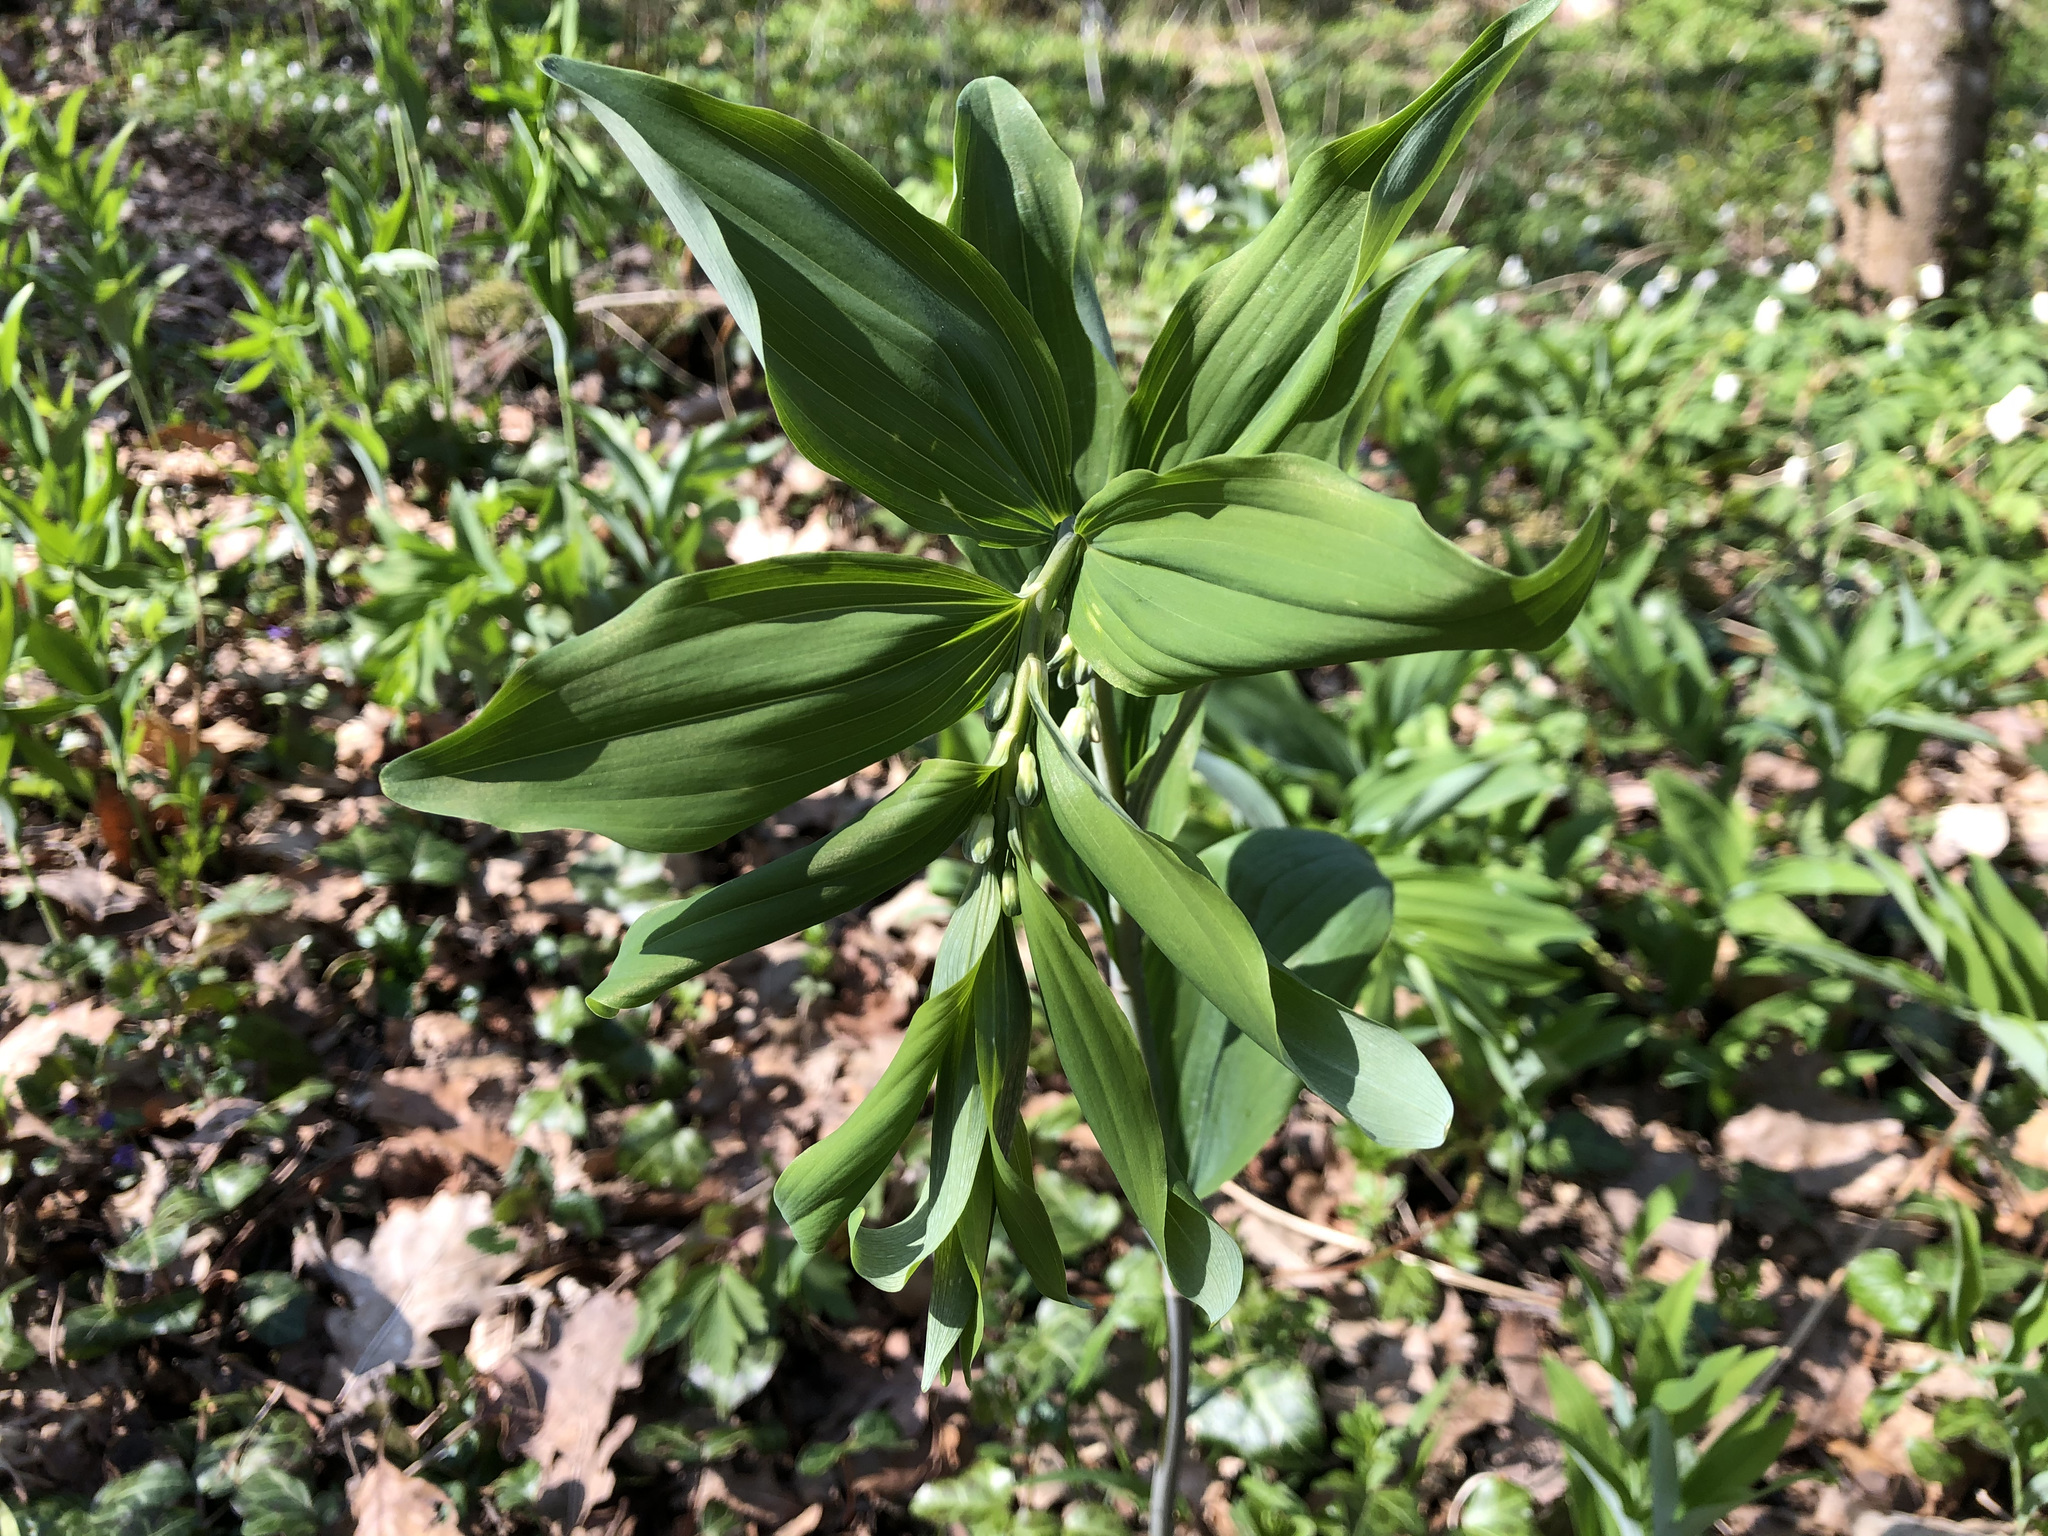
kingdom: Plantae
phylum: Tracheophyta
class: Liliopsida
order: Asparagales
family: Asparagaceae
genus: Polygonatum
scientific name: Polygonatum multiflorum
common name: Solomon's-seal
